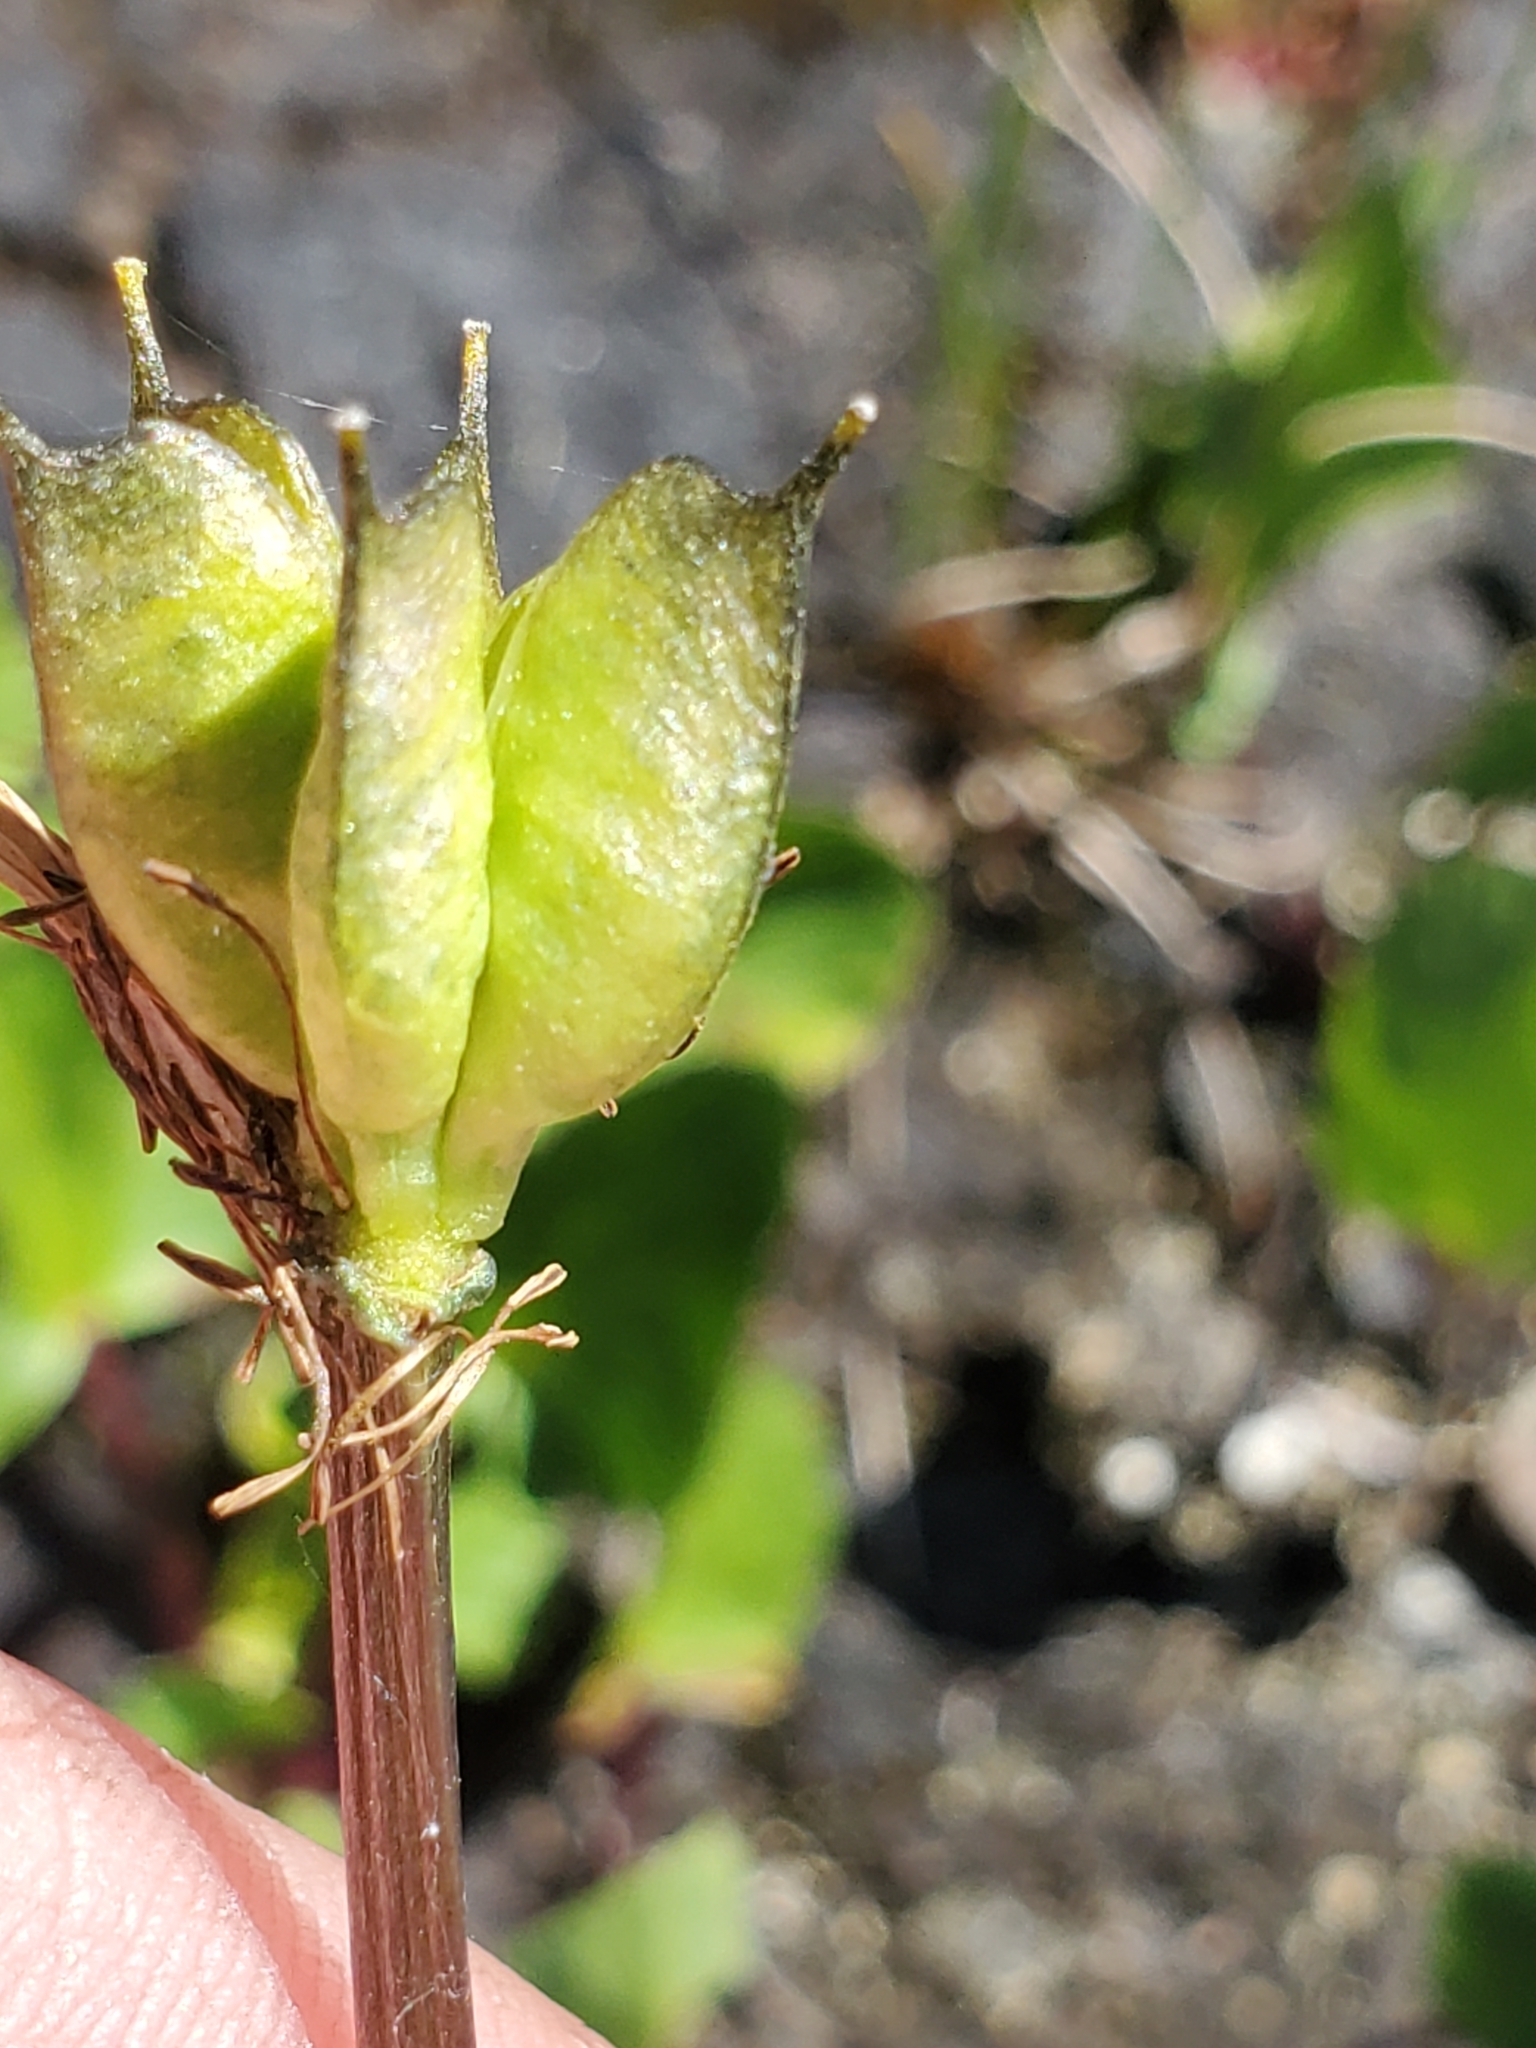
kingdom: Plantae
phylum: Tracheophyta
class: Magnoliopsida
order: Ranunculales
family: Ranunculaceae
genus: Caltha
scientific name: Caltha leptosepala
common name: Elkslip
